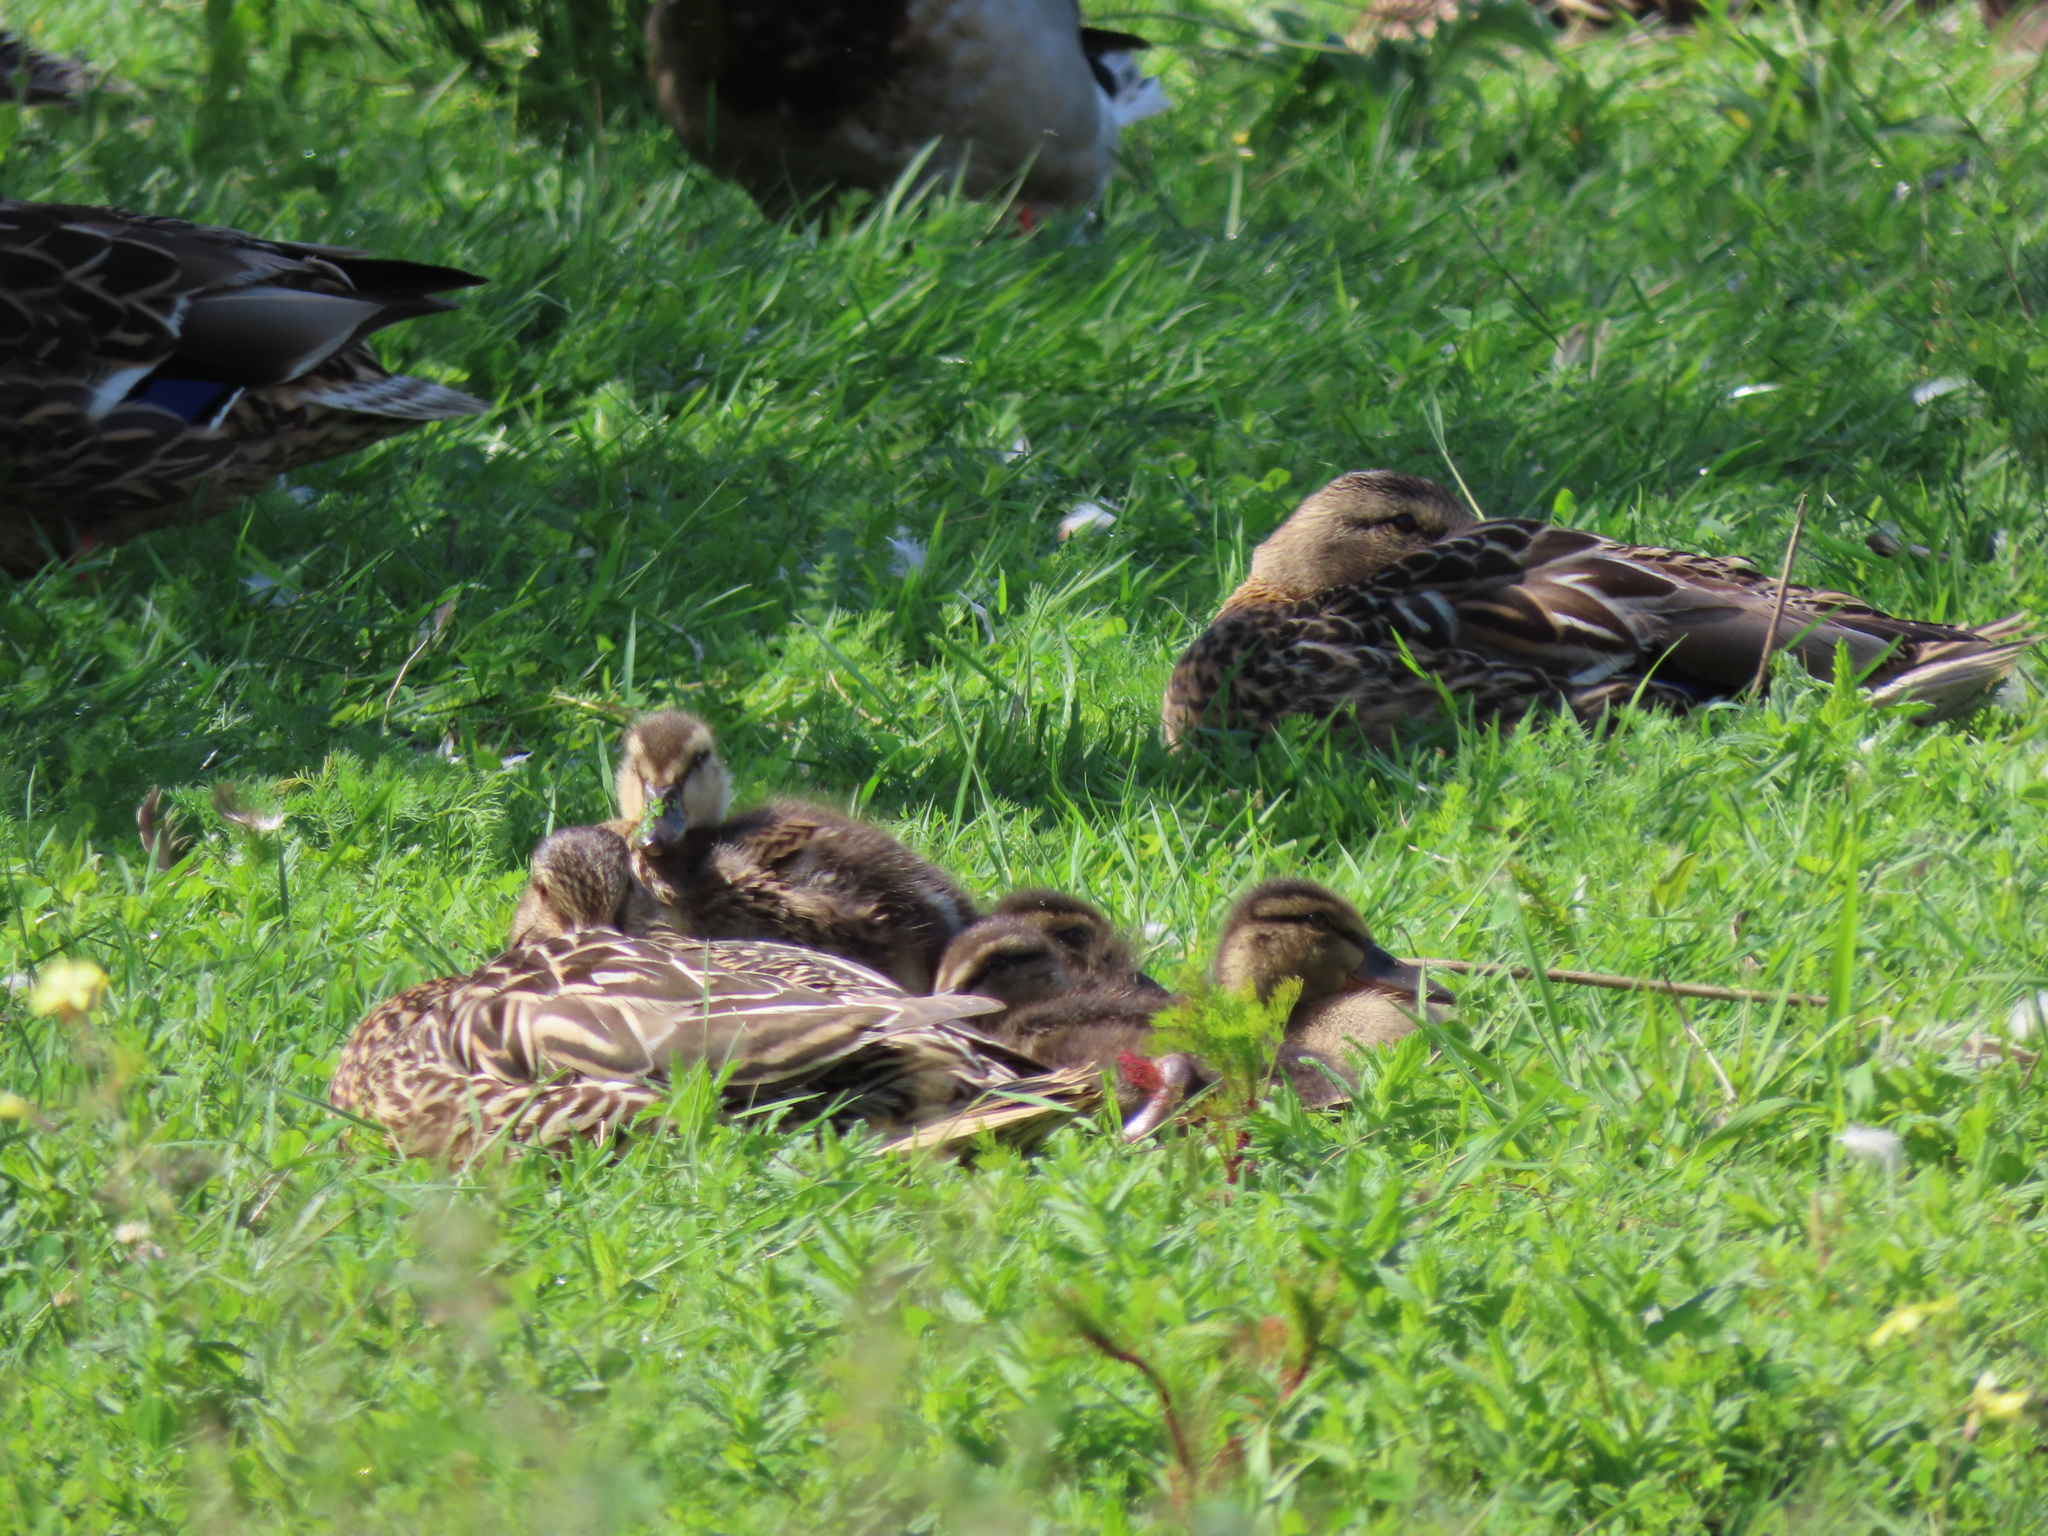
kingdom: Animalia
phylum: Chordata
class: Aves
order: Anseriformes
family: Anatidae
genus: Anas
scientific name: Anas platyrhynchos
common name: Mallard
